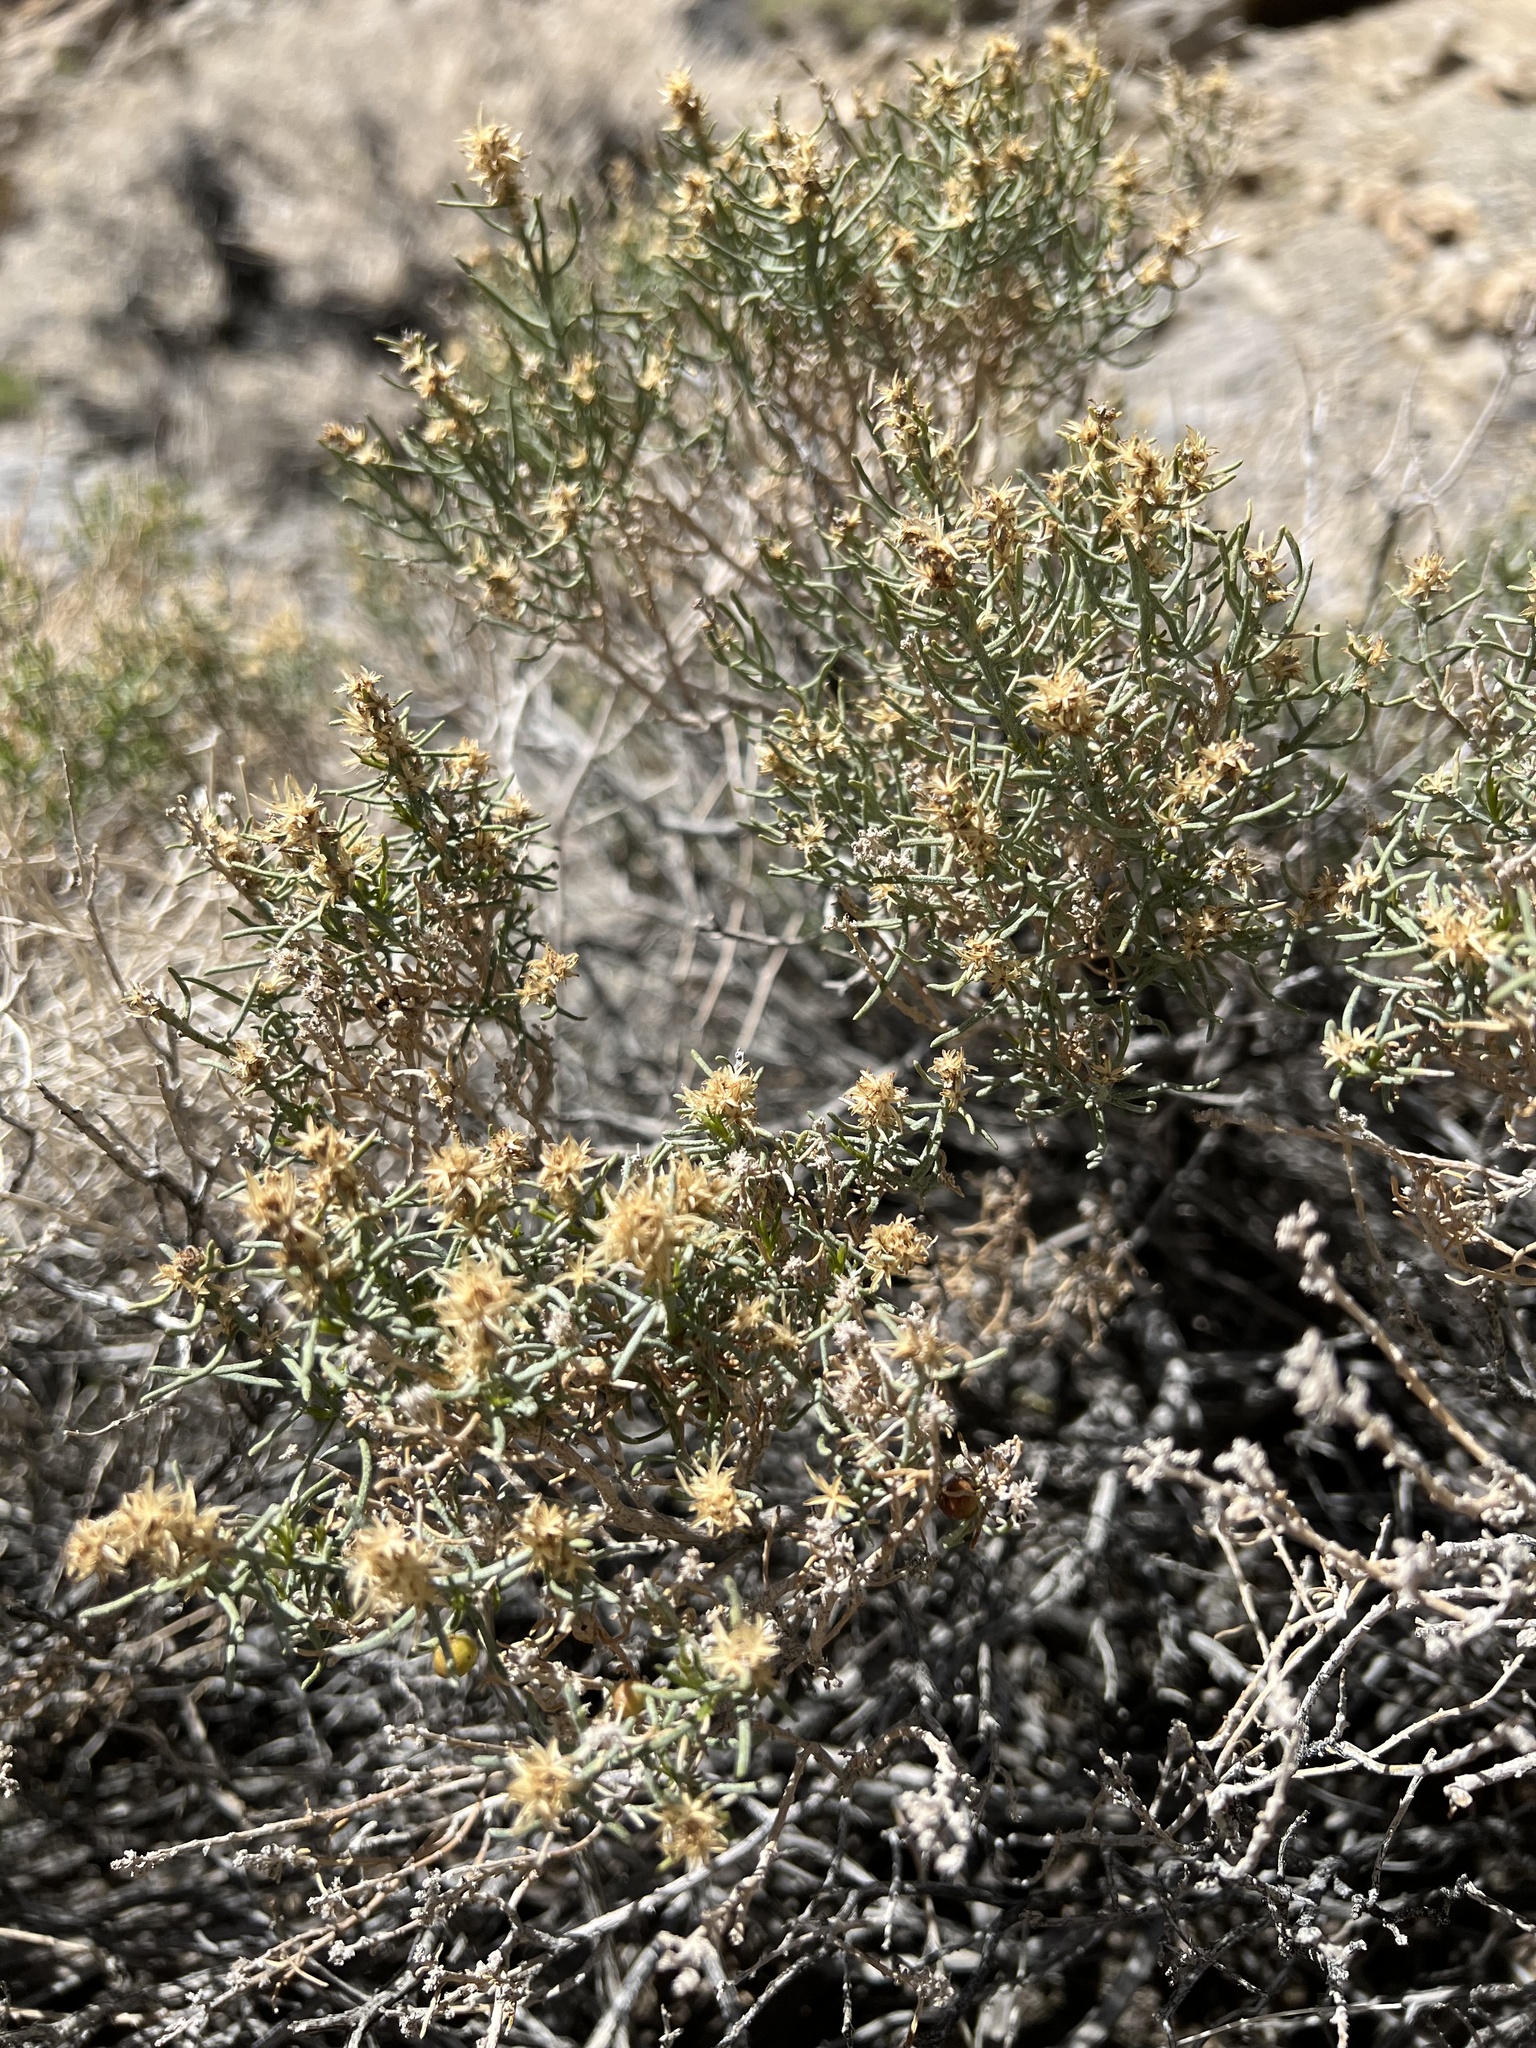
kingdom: Plantae
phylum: Tracheophyta
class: Magnoliopsida
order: Asterales
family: Asteraceae
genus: Ericameria
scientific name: Ericameria teretifolia
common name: Round-leaf rabbitbrush
